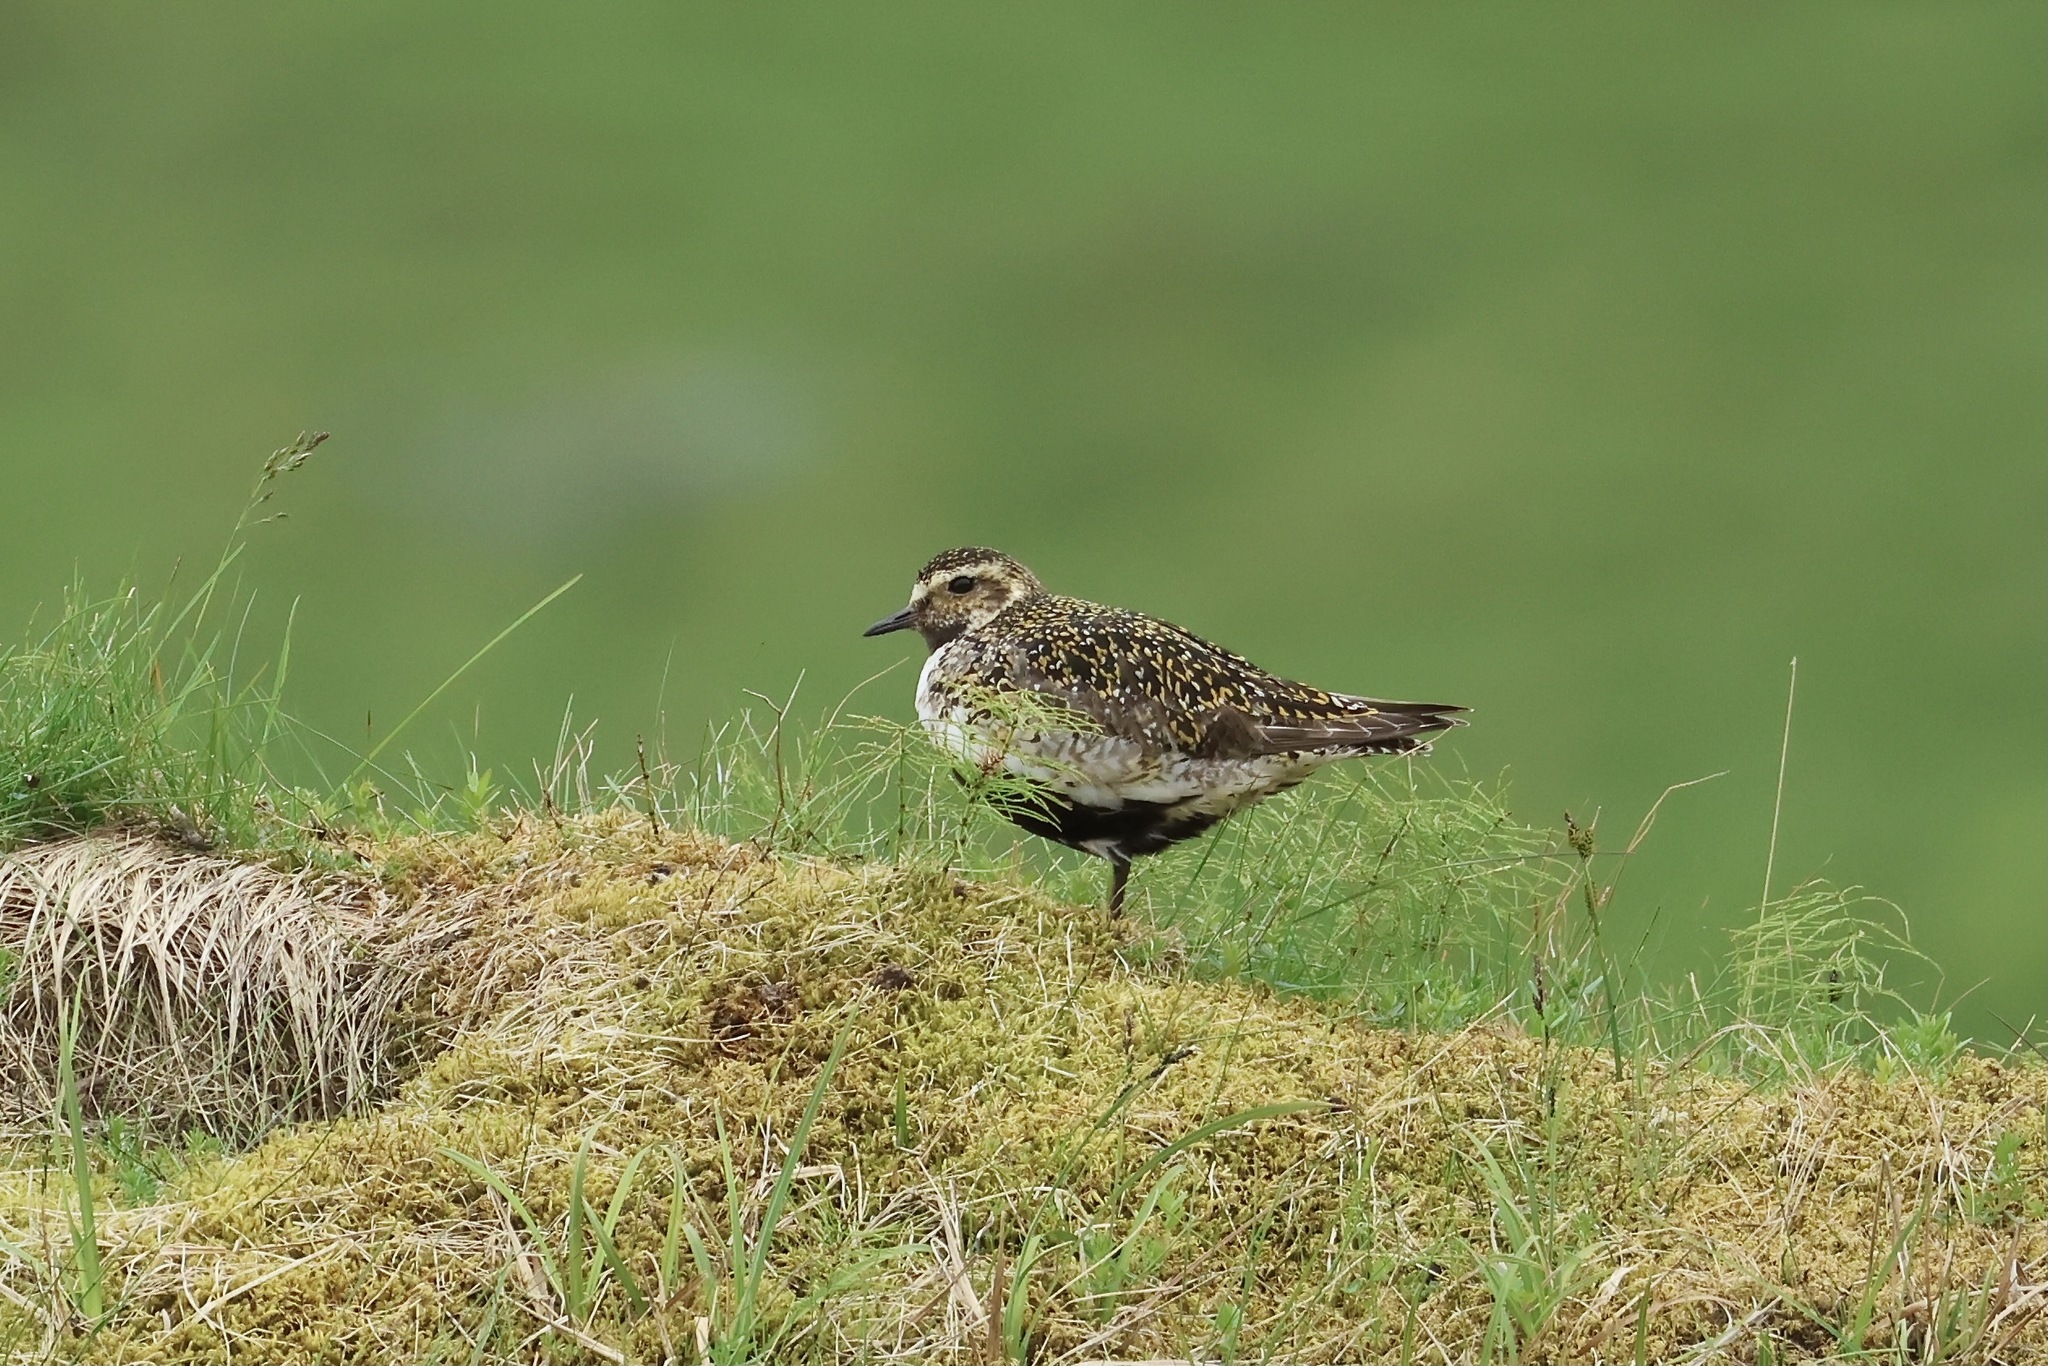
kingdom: Animalia
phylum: Chordata
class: Aves
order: Charadriiformes
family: Charadriidae
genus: Pluvialis
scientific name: Pluvialis apricaria
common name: European golden plover
